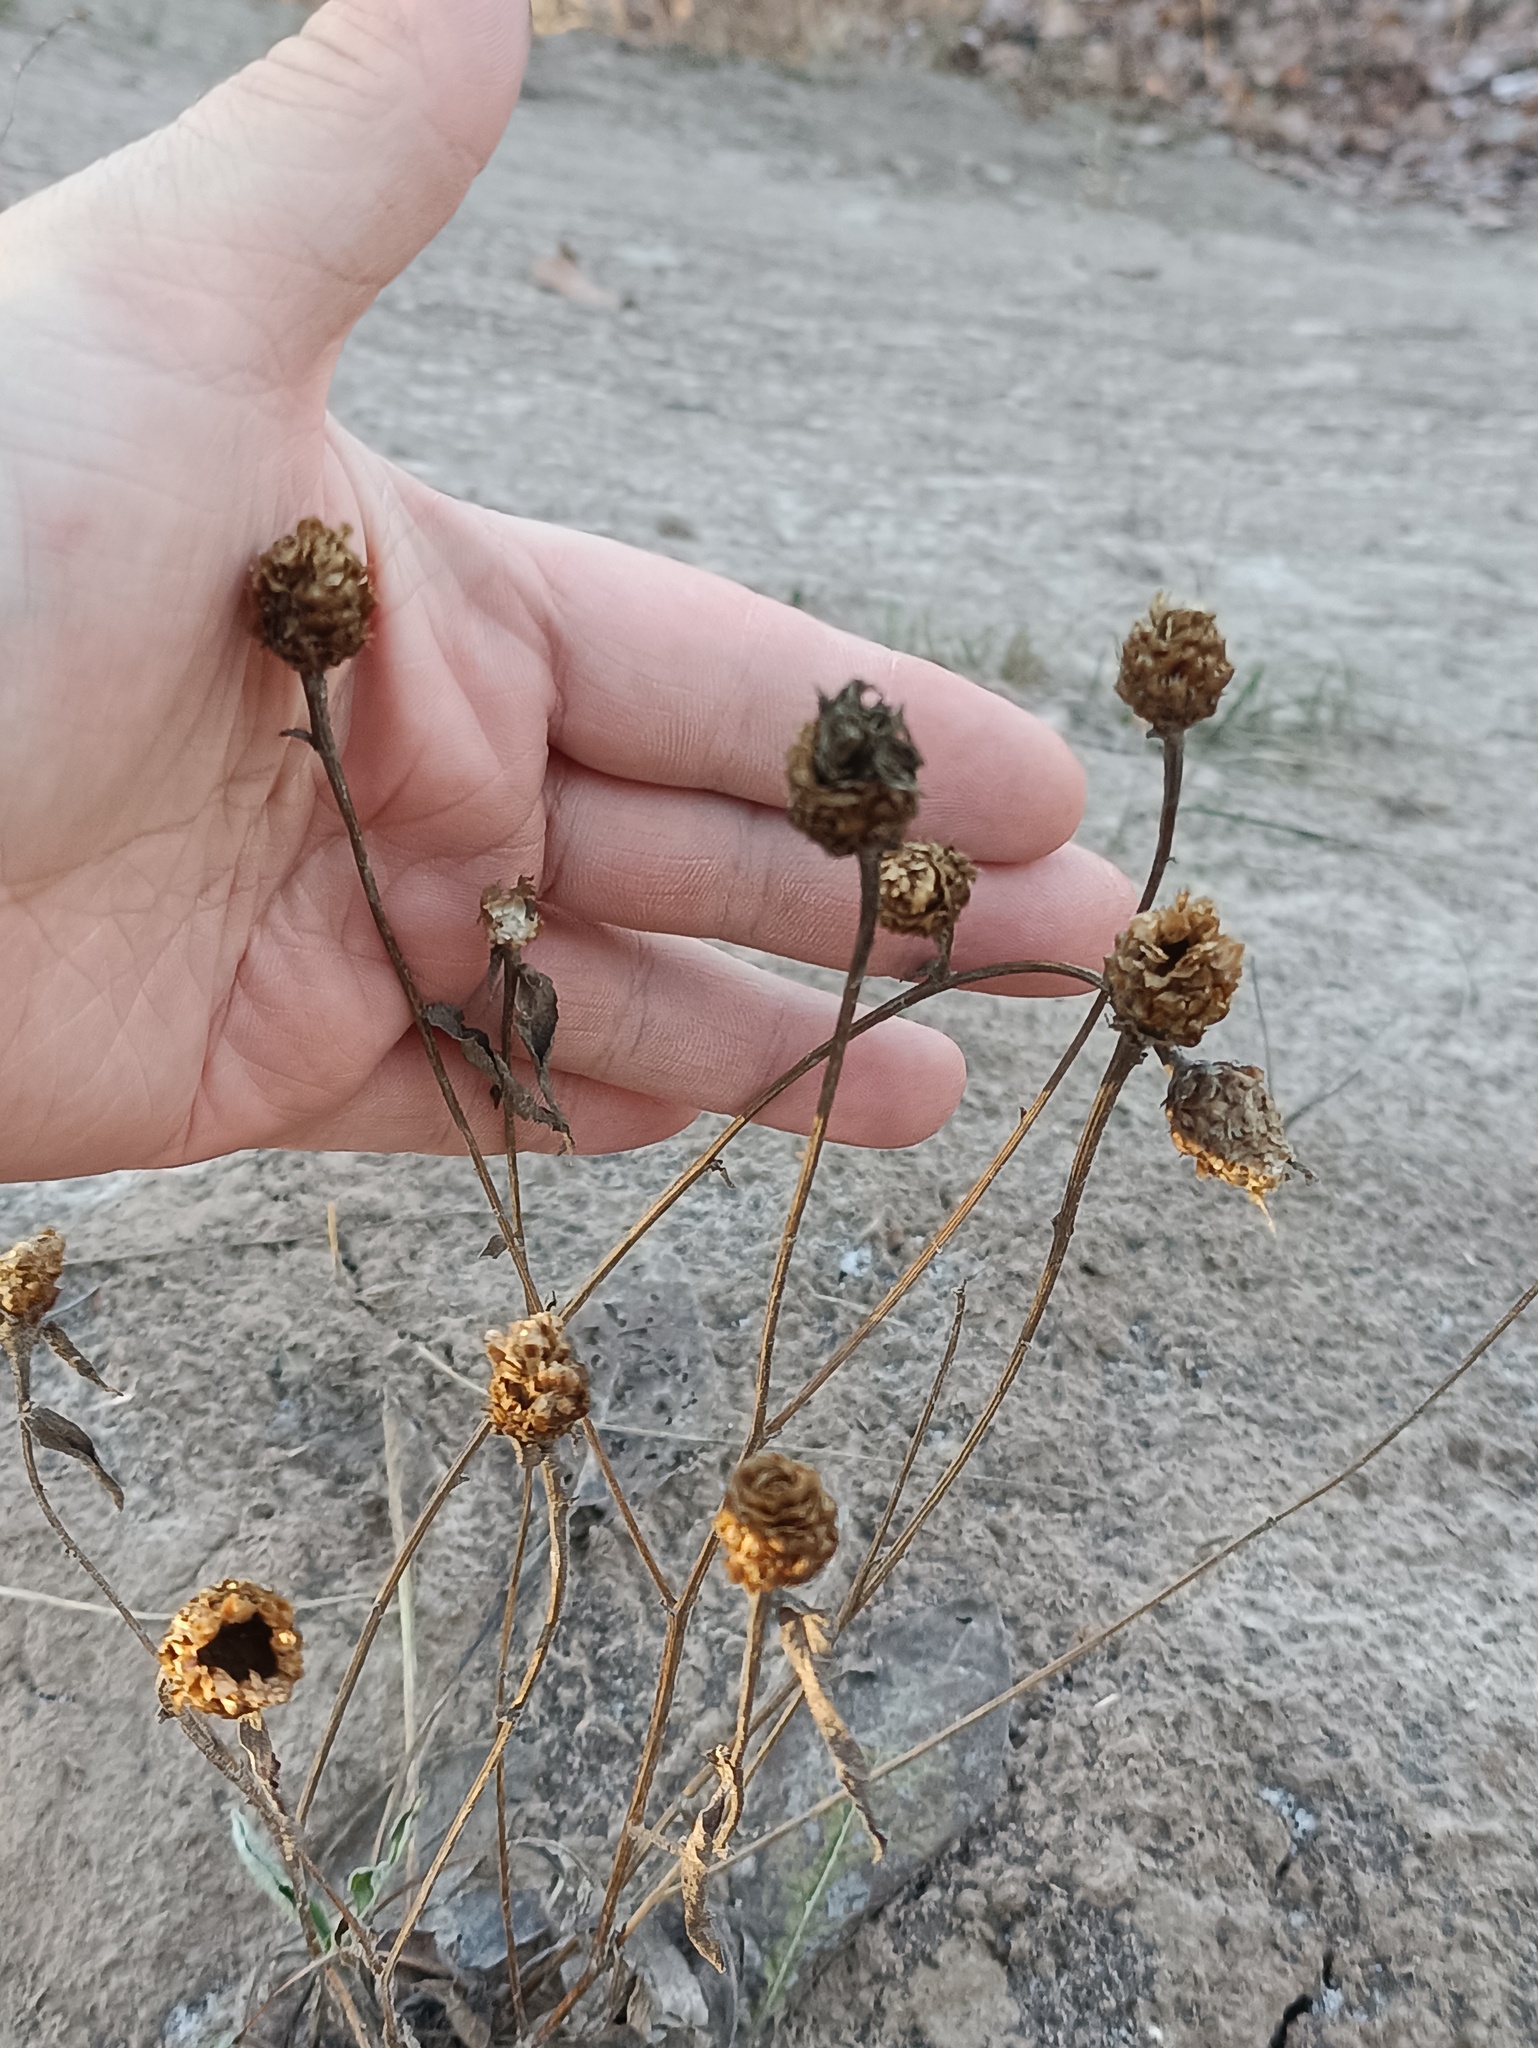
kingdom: Plantae
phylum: Tracheophyta
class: Magnoliopsida
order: Asterales
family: Asteraceae
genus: Centaurea
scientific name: Centaurea jacea
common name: Brown knapweed
